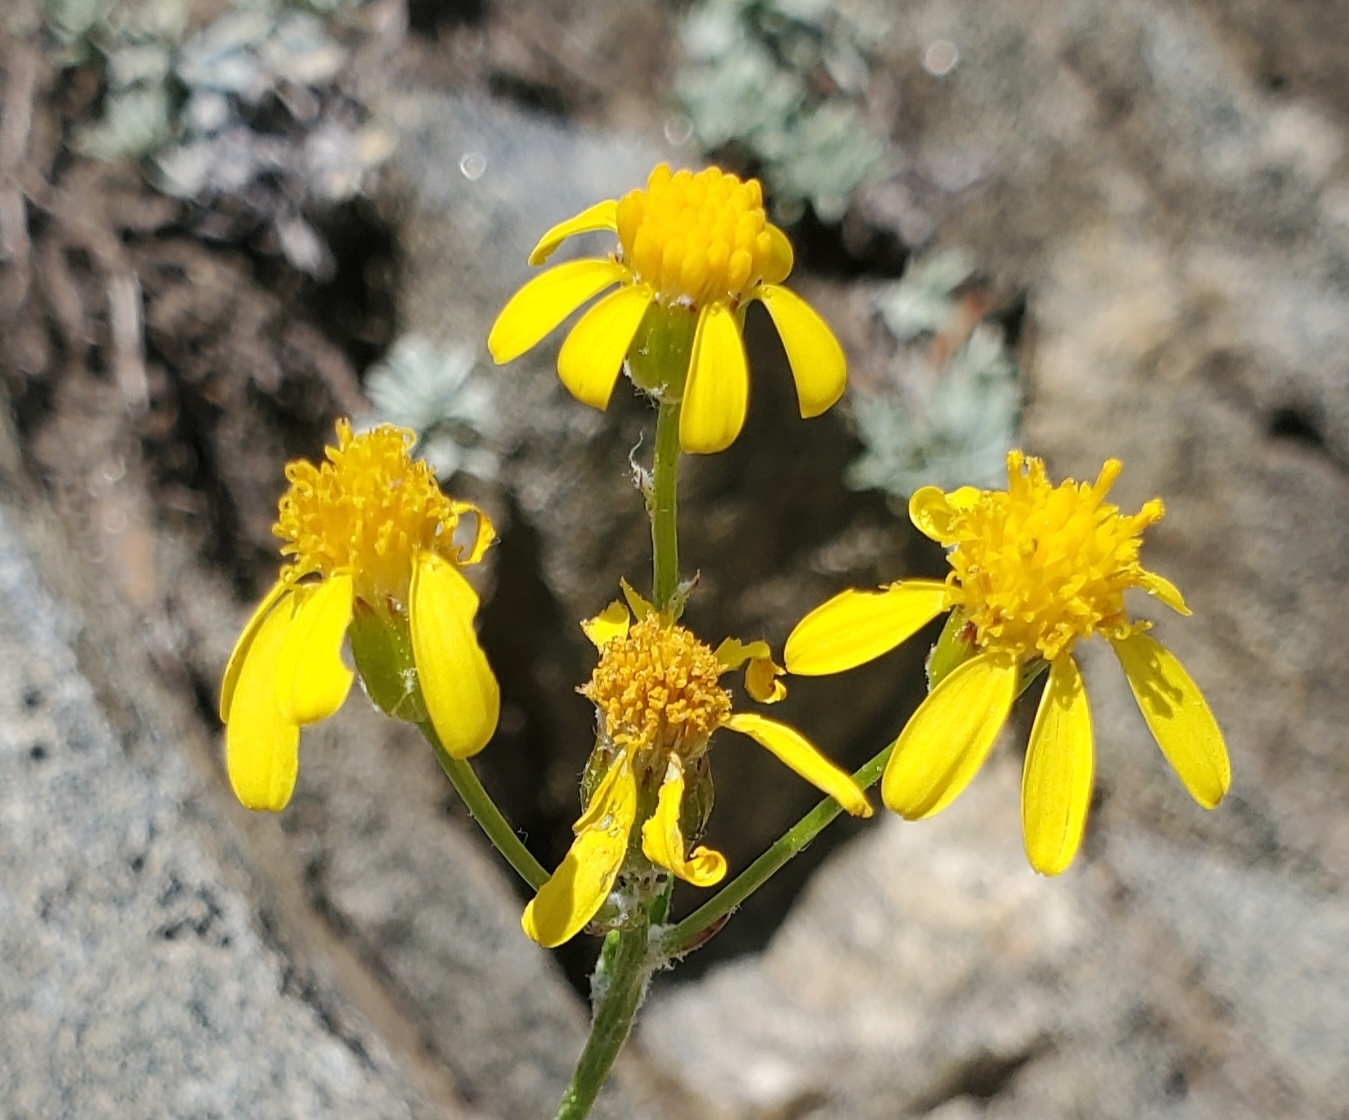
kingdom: Plantae
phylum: Tracheophyta
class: Magnoliopsida
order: Asterales
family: Asteraceae
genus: Packera
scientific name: Packera cana
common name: Woolly groundsel
